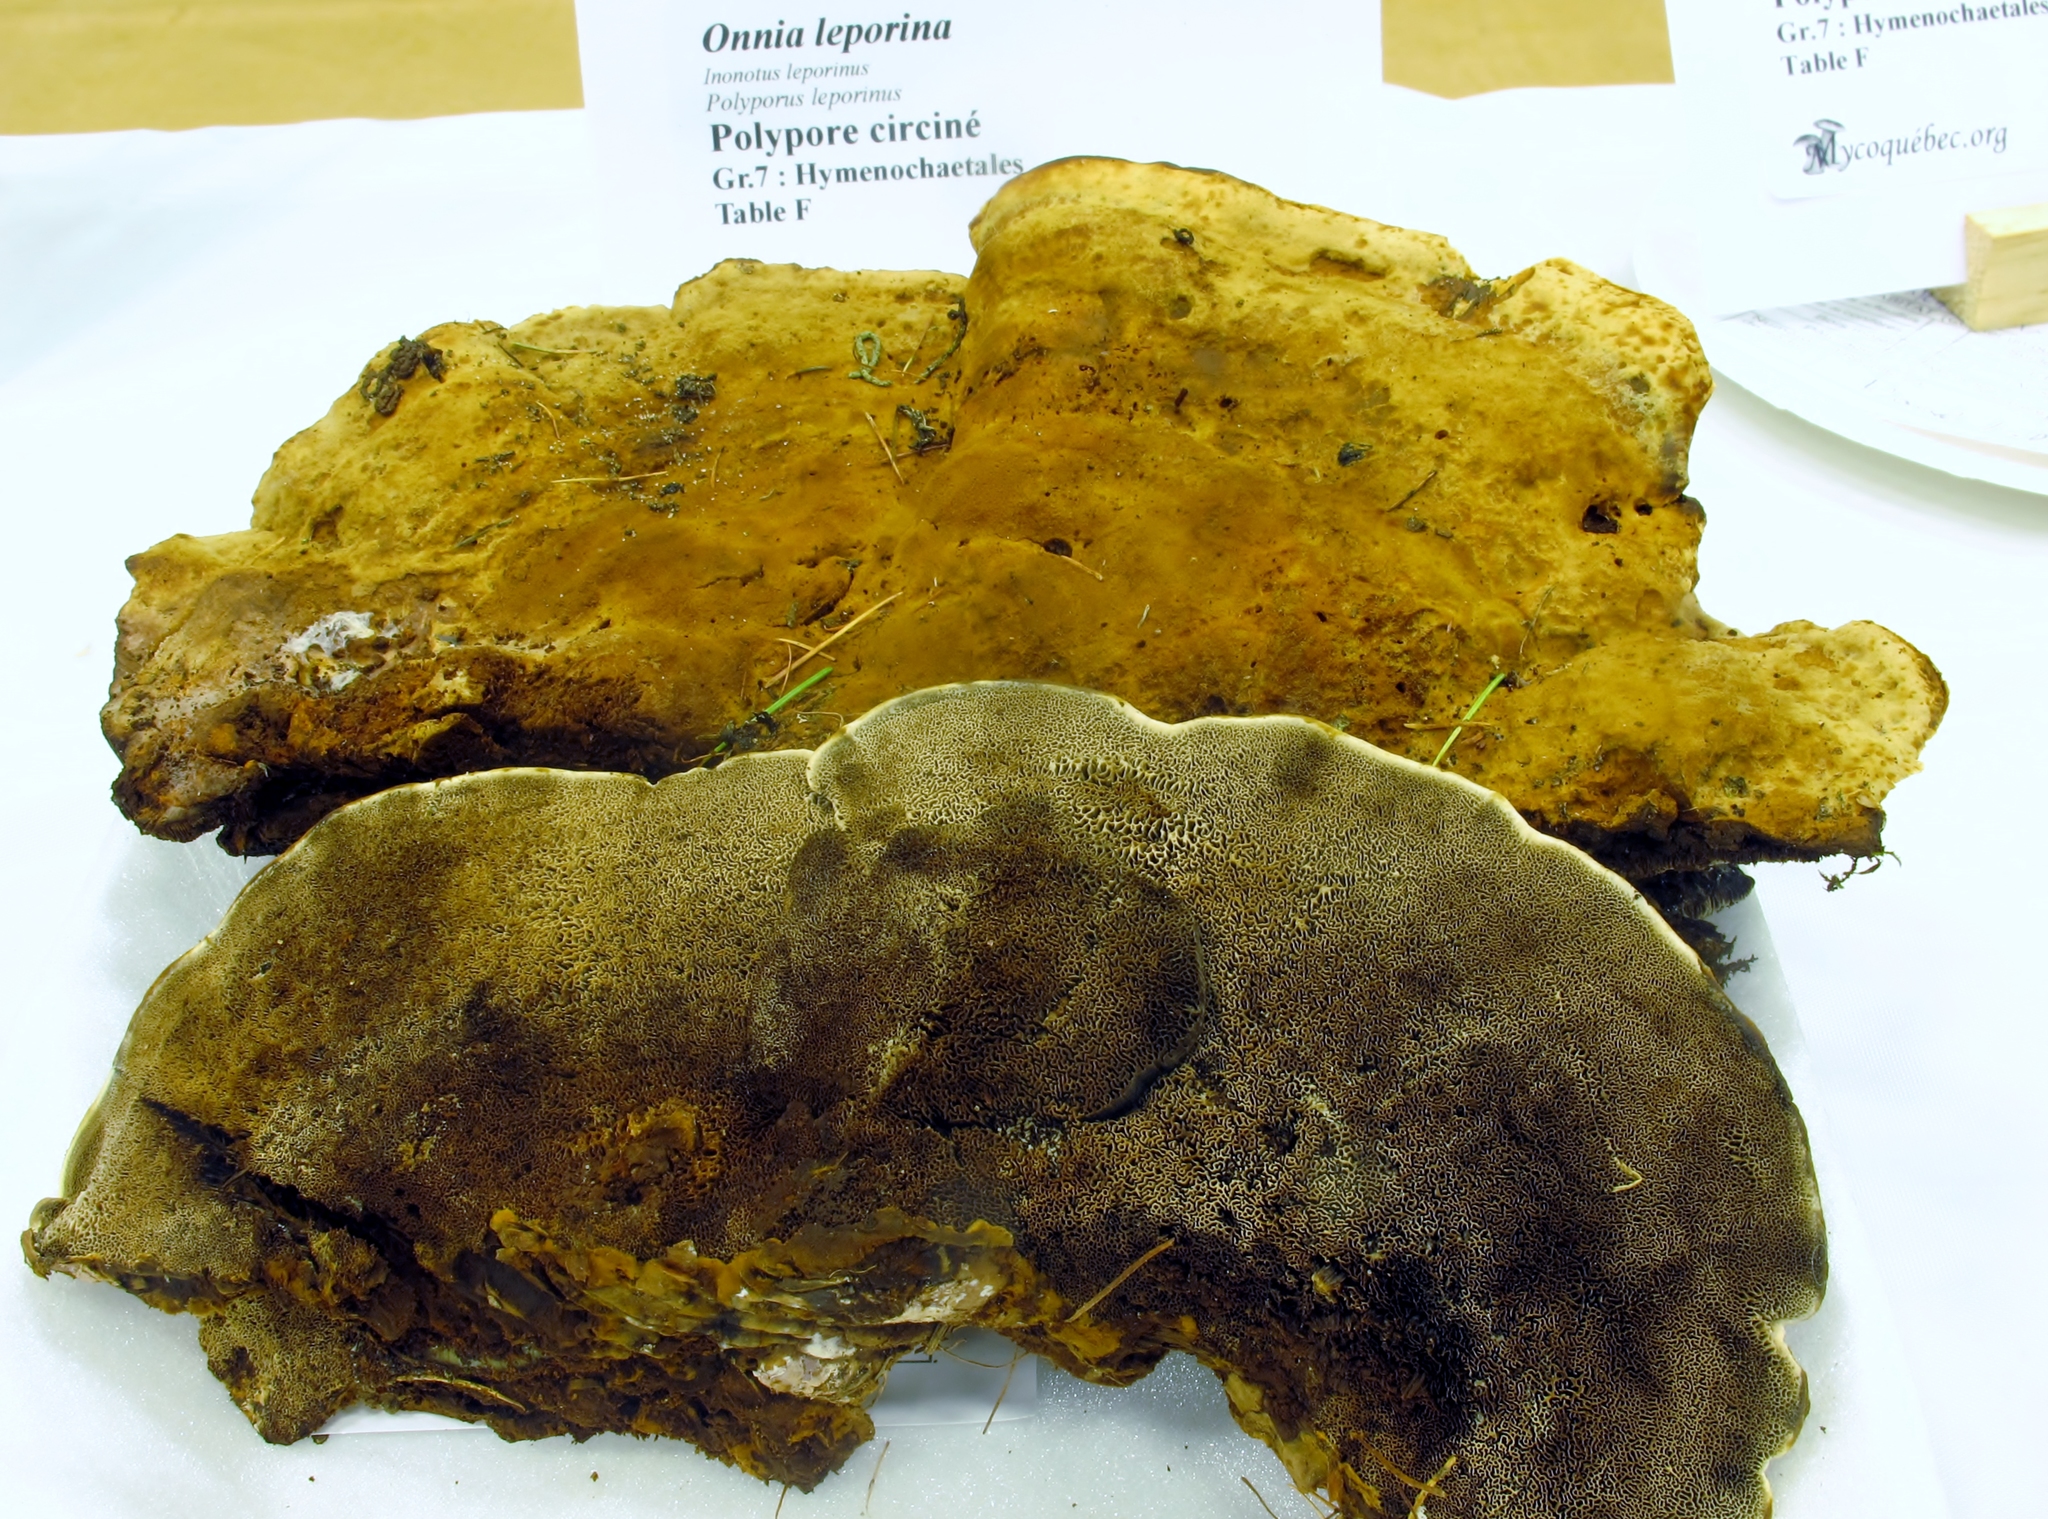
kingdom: Fungi
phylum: Basidiomycota
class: Agaricomycetes
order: Hymenochaetales
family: Hymenochaetaceae
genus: Inonotus
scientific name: Inonotus leporinus
